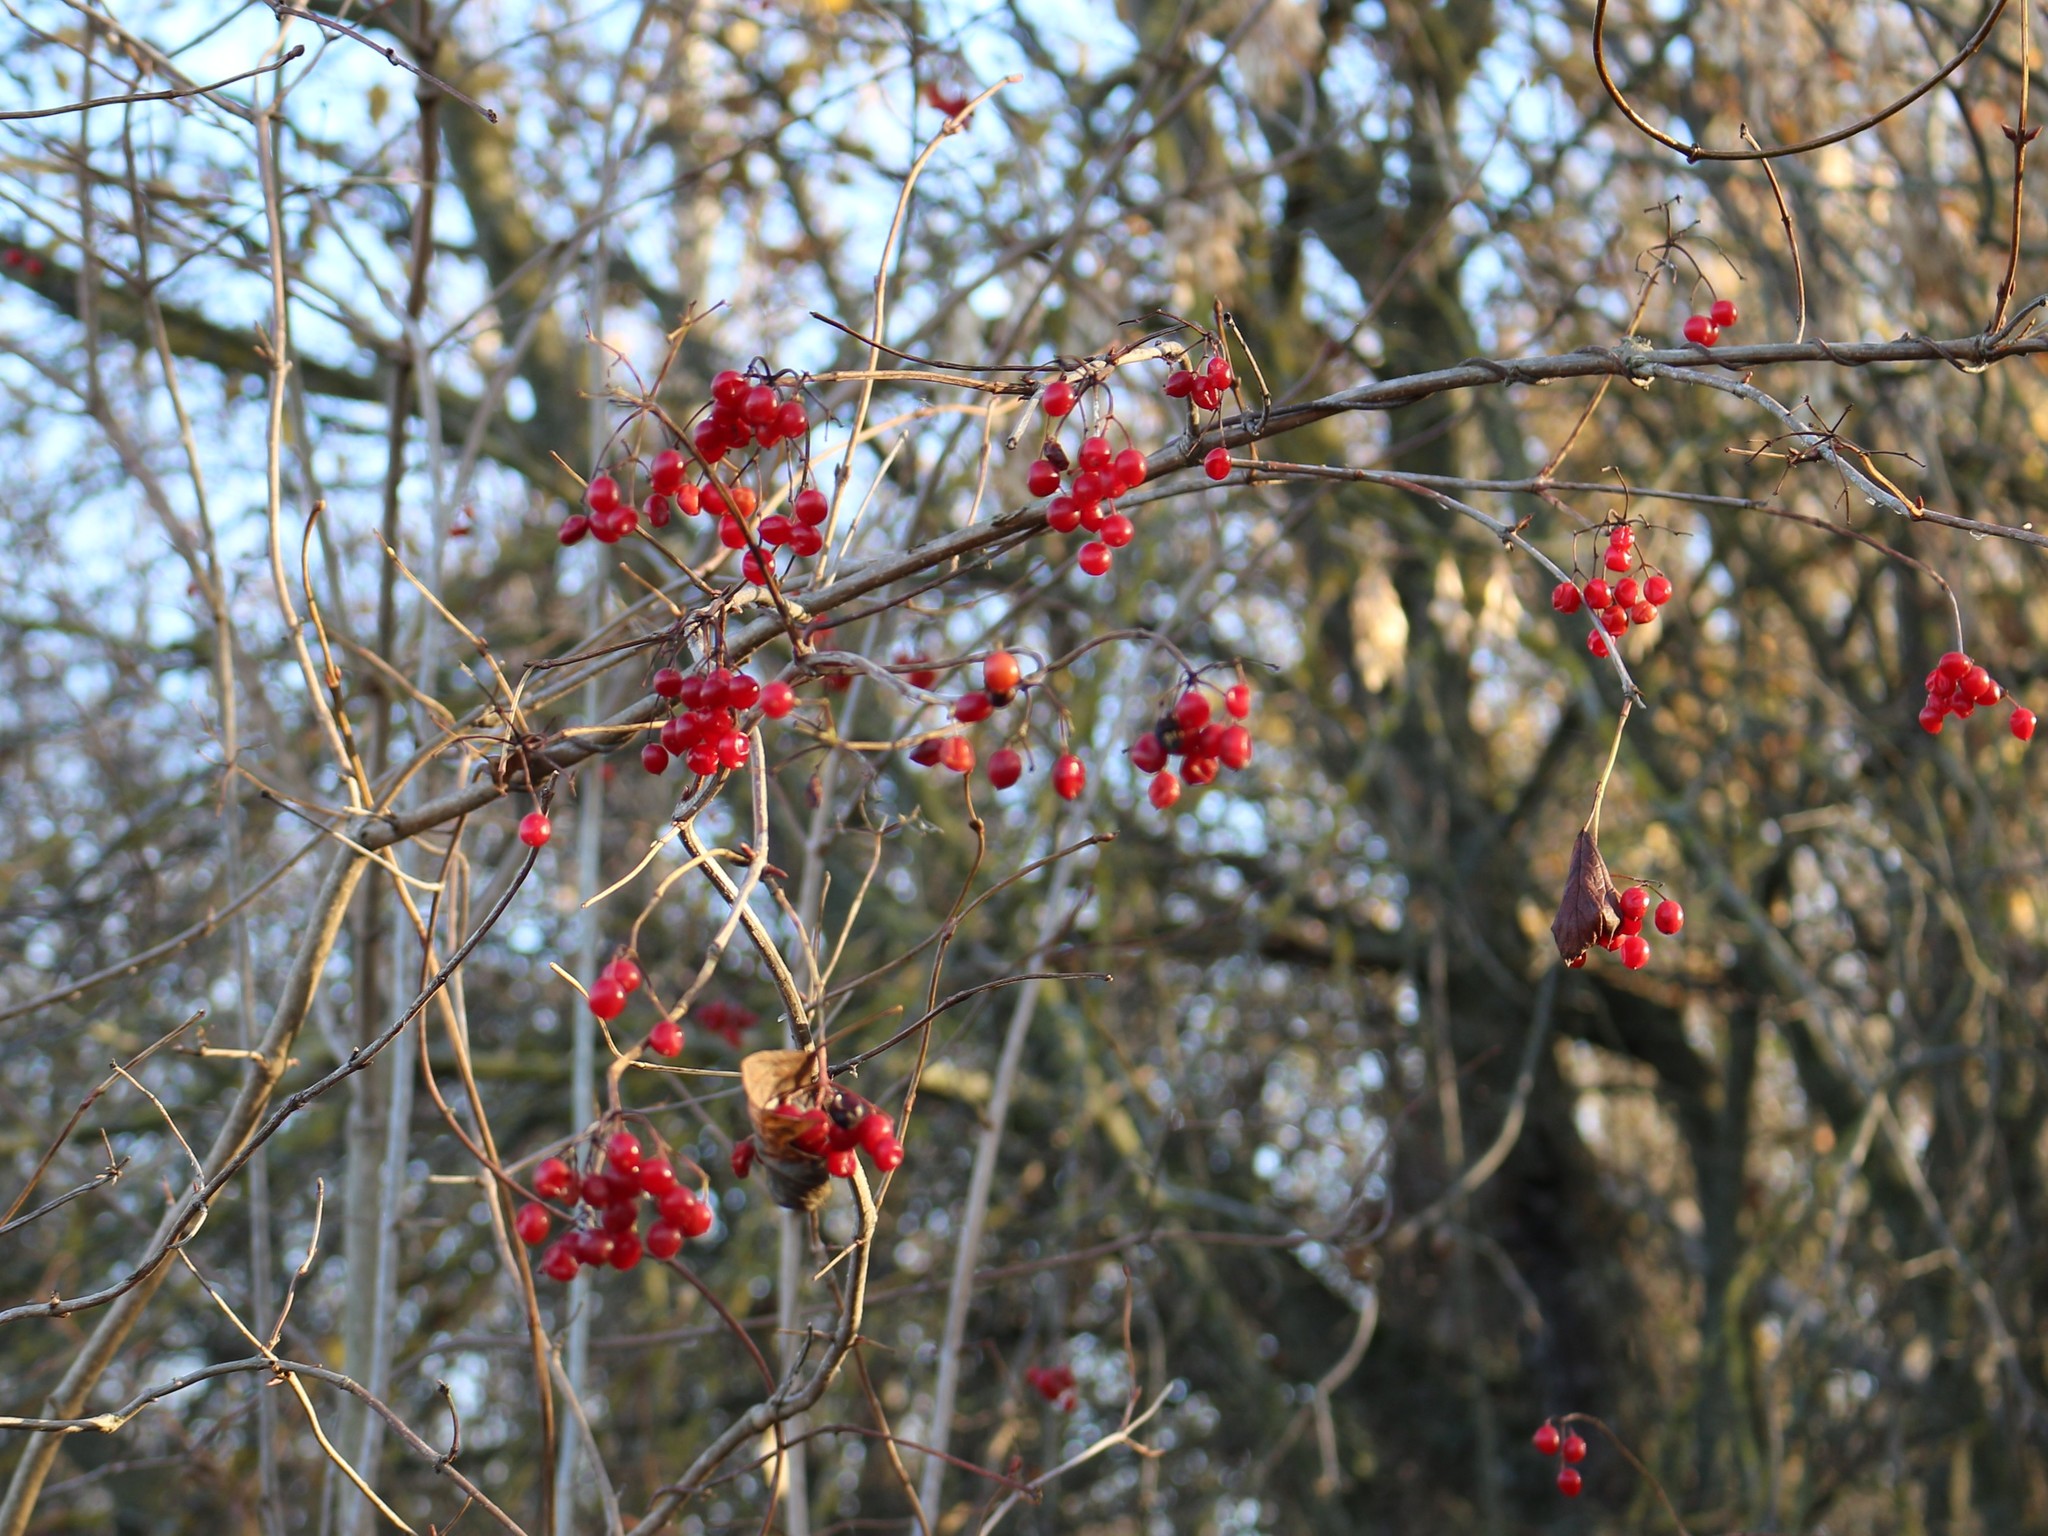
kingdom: Plantae
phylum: Tracheophyta
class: Magnoliopsida
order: Dipsacales
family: Viburnaceae
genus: Viburnum
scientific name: Viburnum opulus
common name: Guelder-rose
